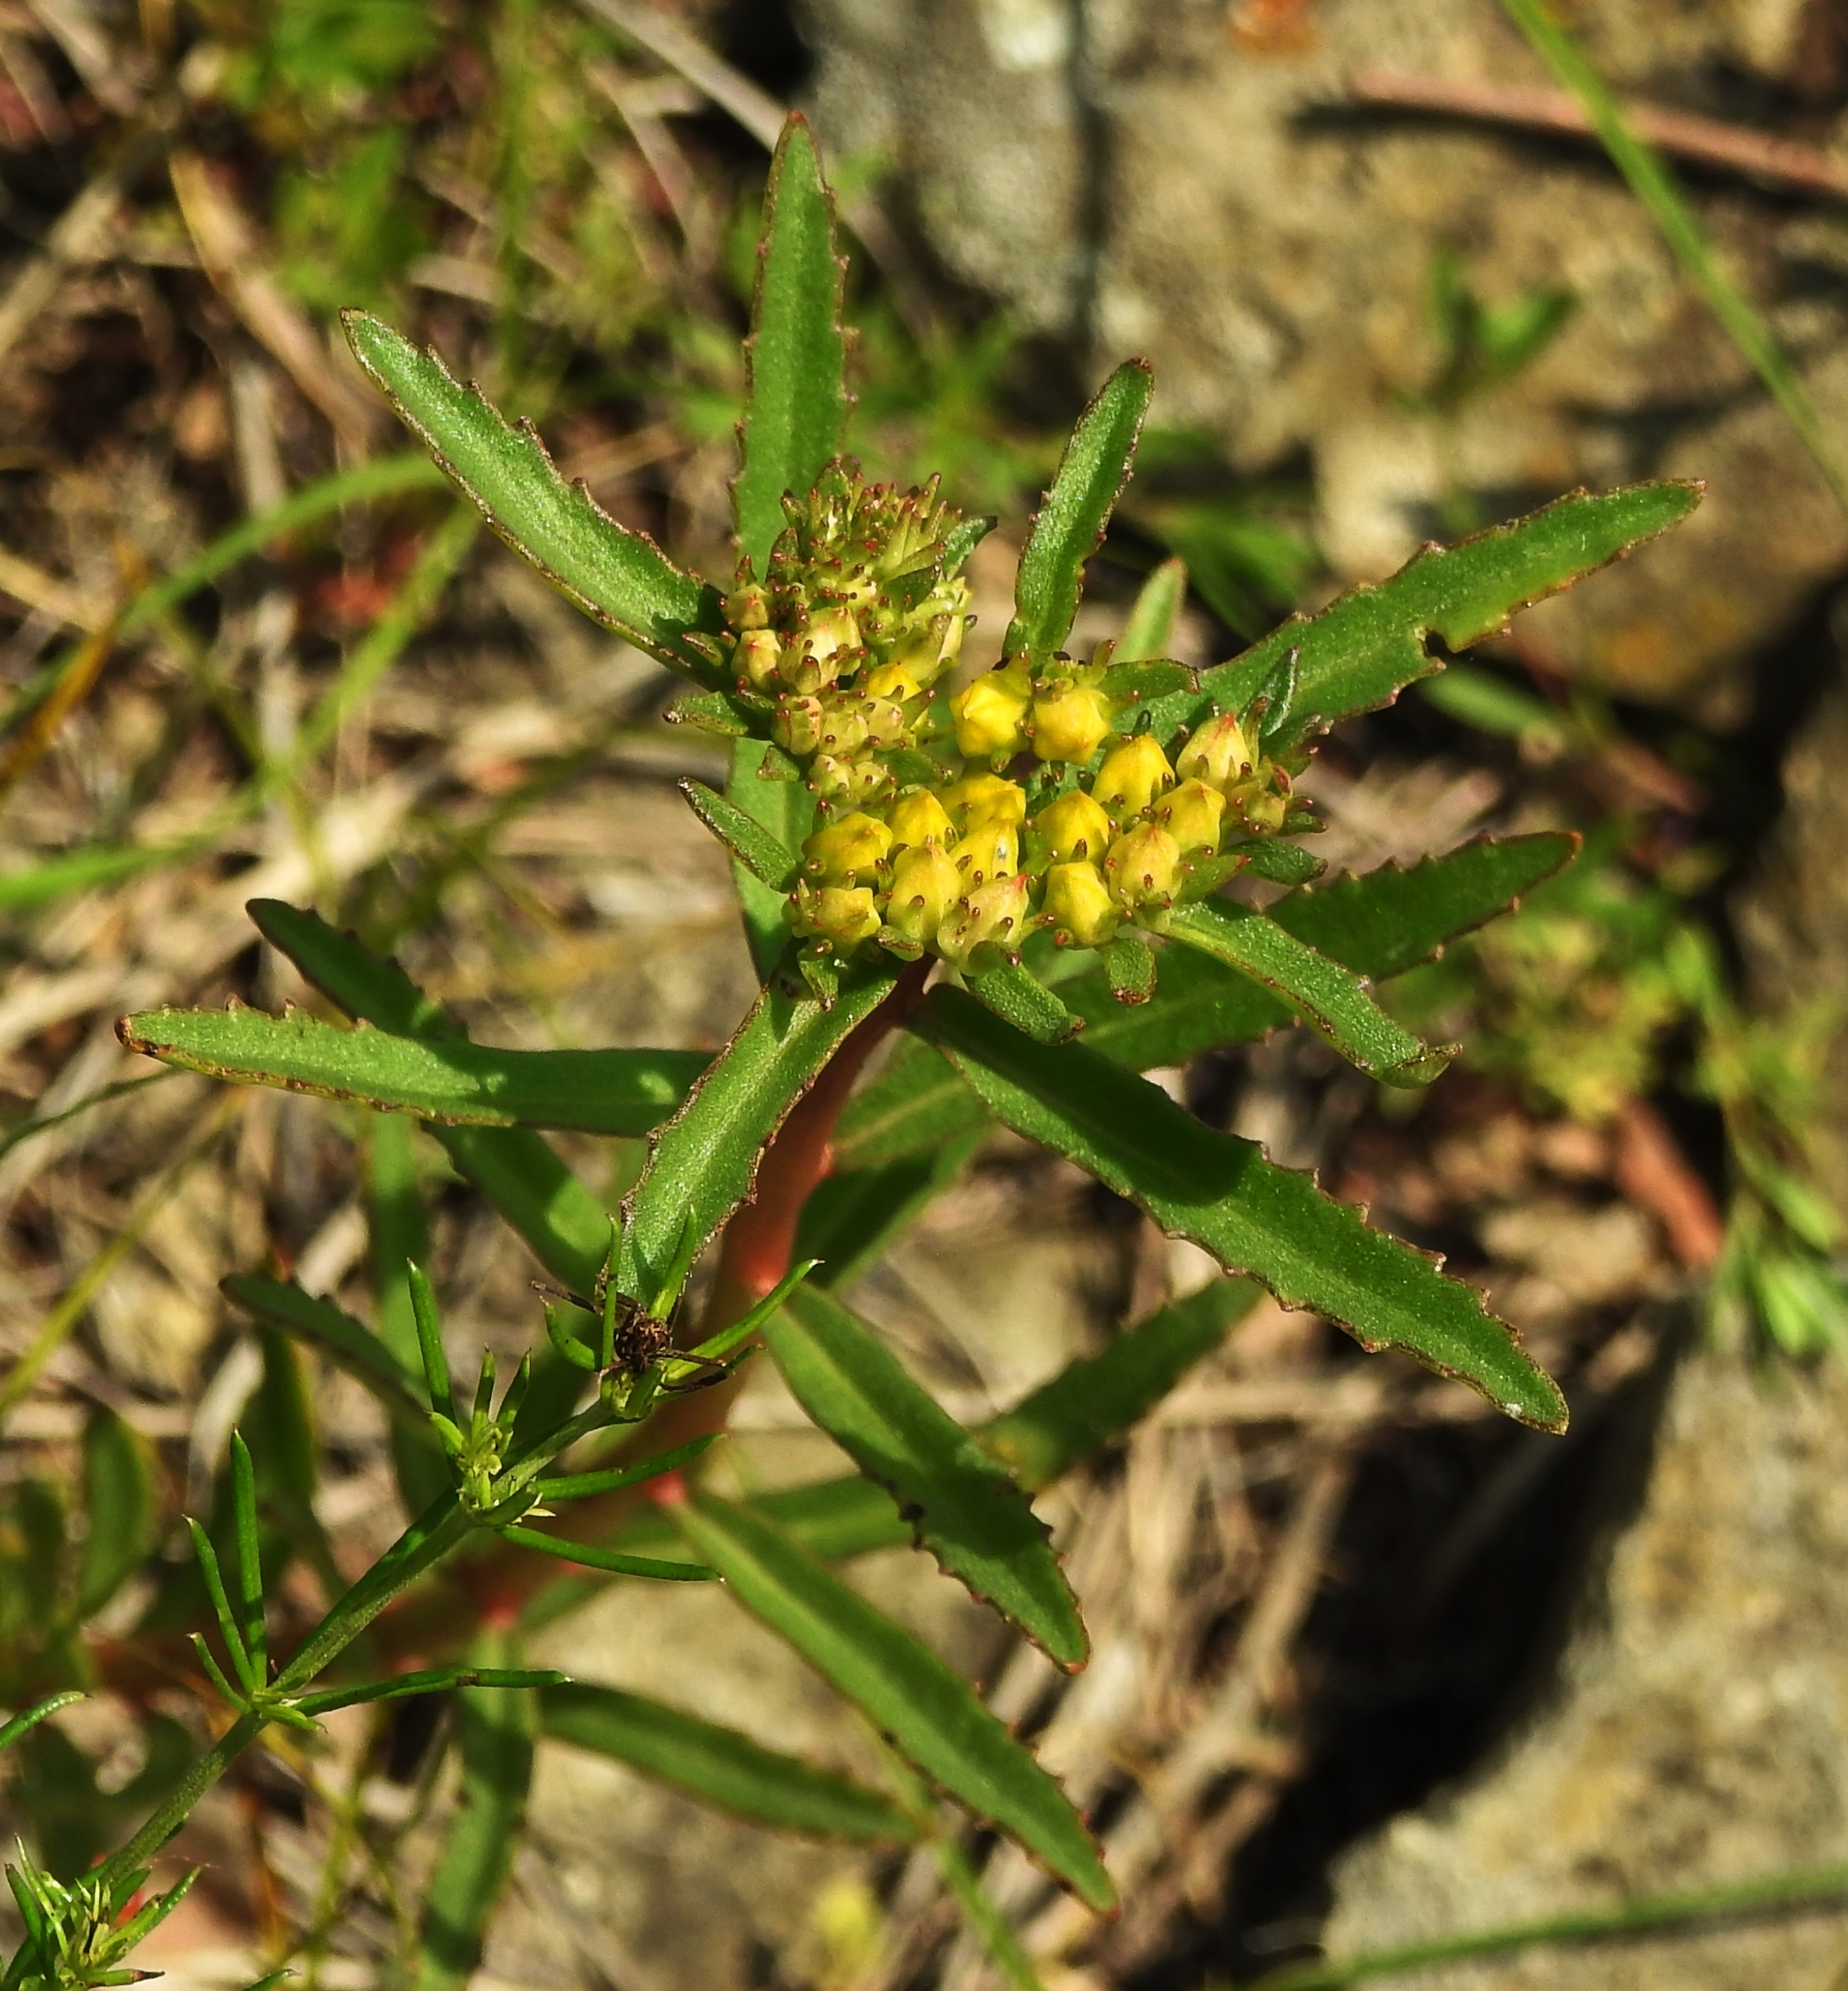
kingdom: Plantae
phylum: Tracheophyta
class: Magnoliopsida
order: Saxifragales
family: Crassulaceae
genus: Phedimus
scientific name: Phedimus aizoon
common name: Orpin aizoon
